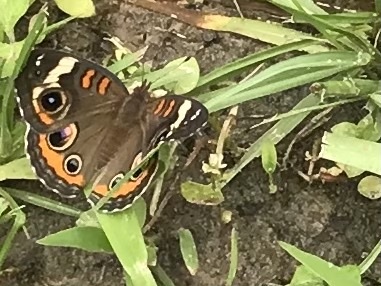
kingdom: Animalia
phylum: Arthropoda
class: Insecta
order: Lepidoptera
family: Nymphalidae
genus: Junonia
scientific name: Junonia coenia
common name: Common buckeye
